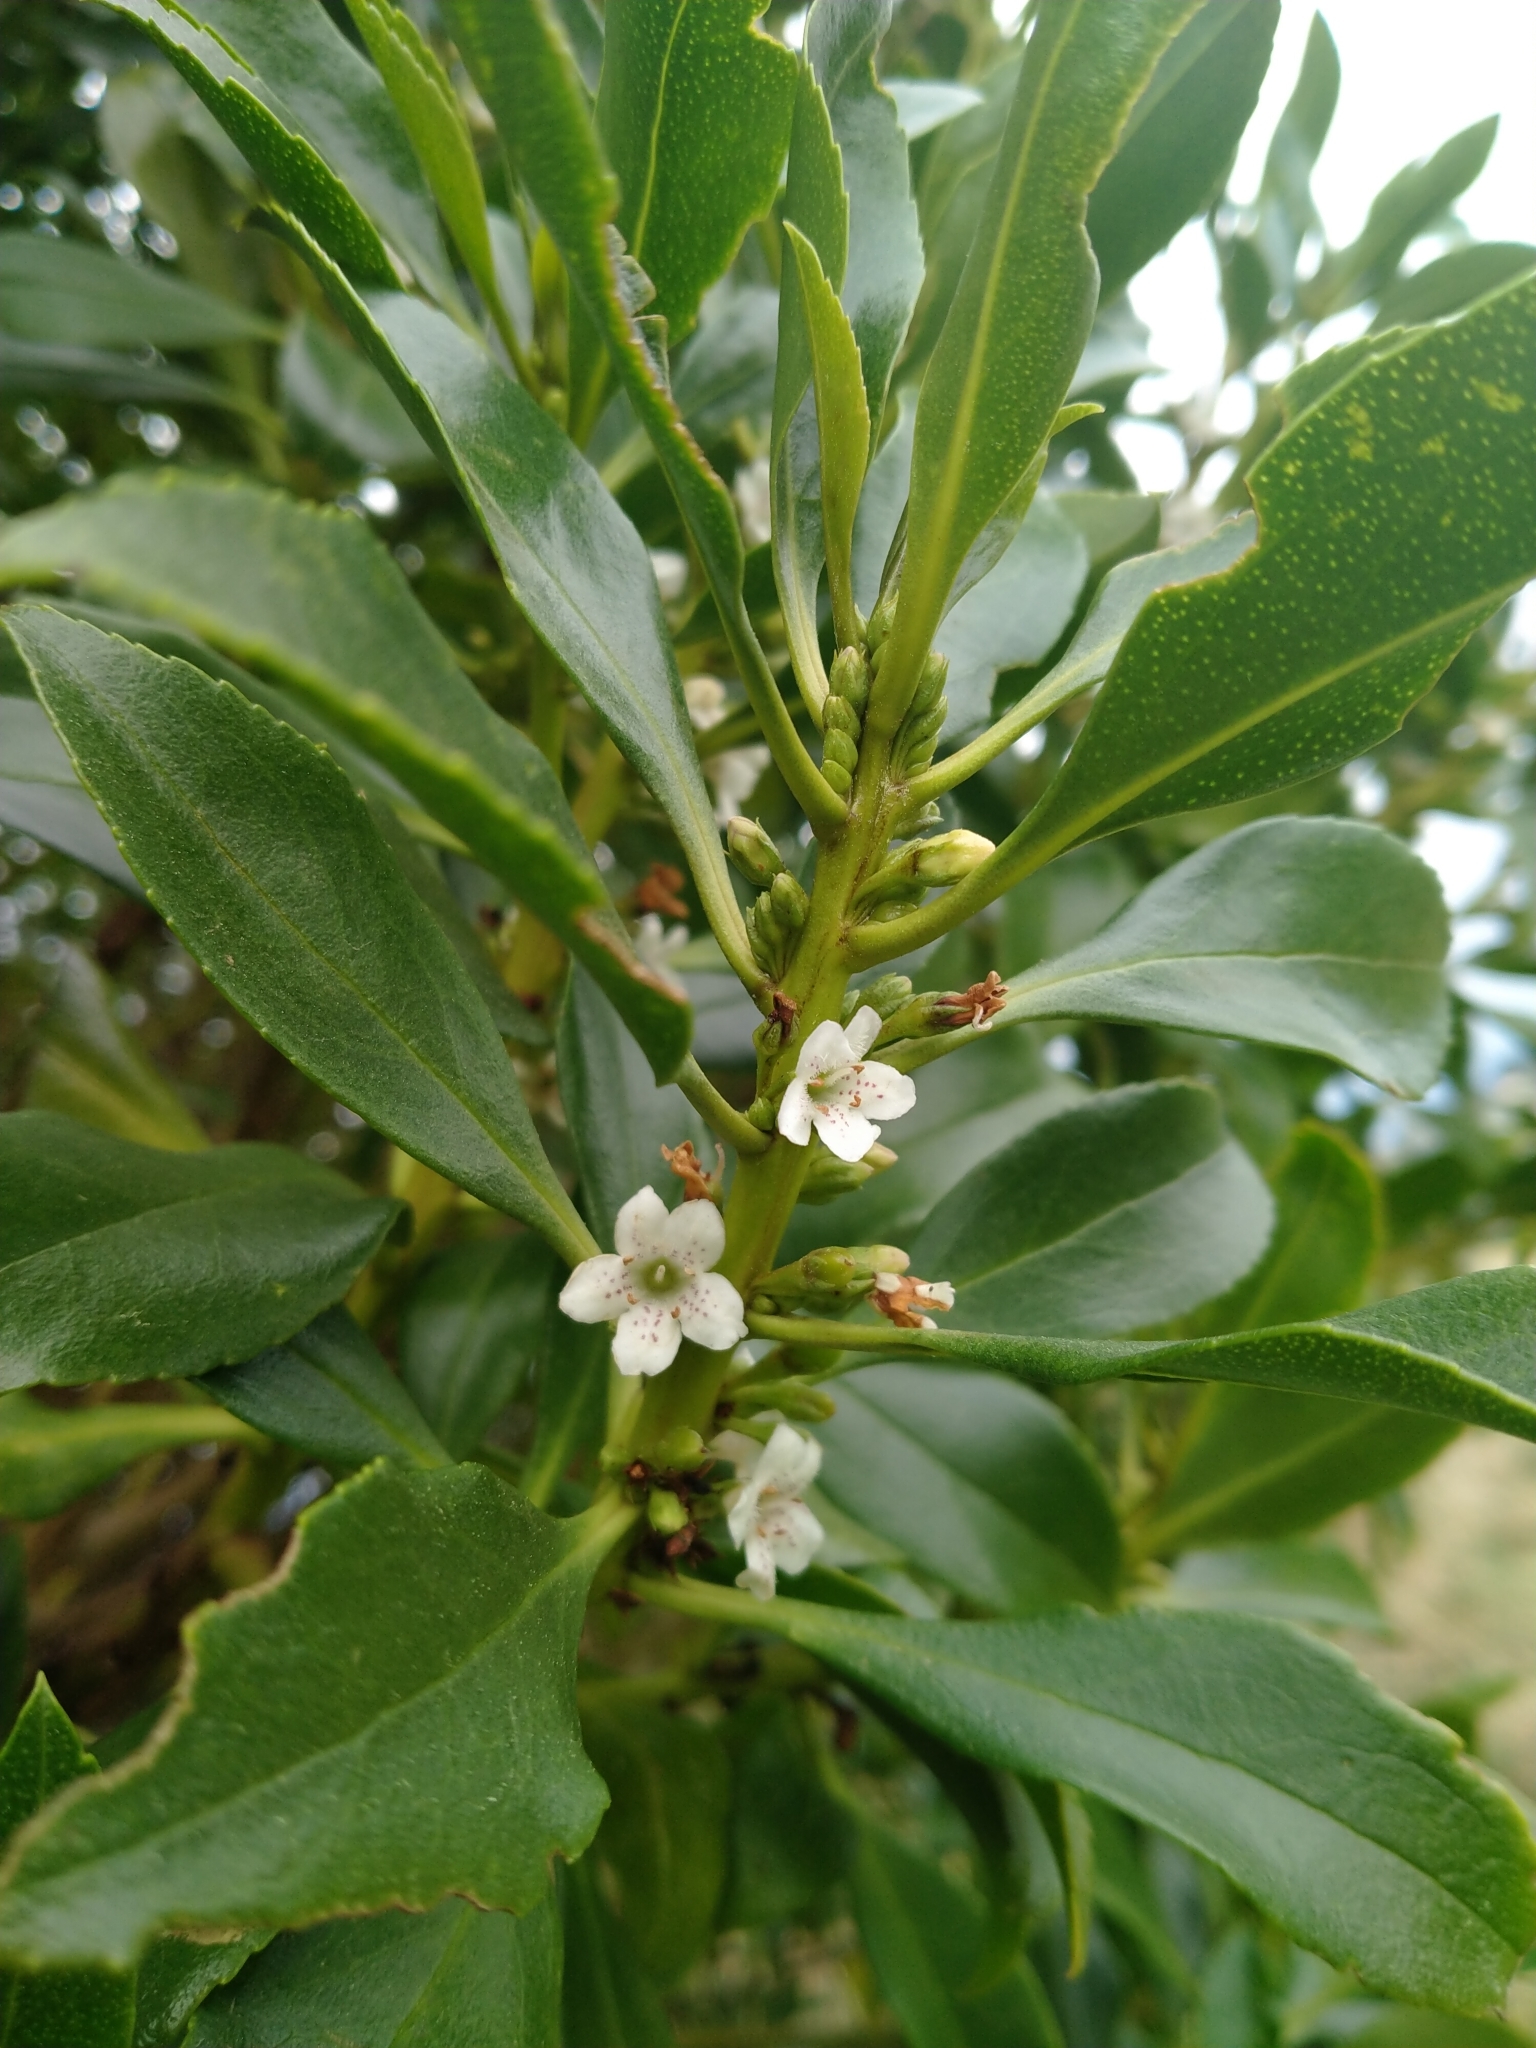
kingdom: Plantae
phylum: Tracheophyta
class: Magnoliopsida
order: Lamiales
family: Scrophulariaceae
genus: Myoporum
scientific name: Myoporum
